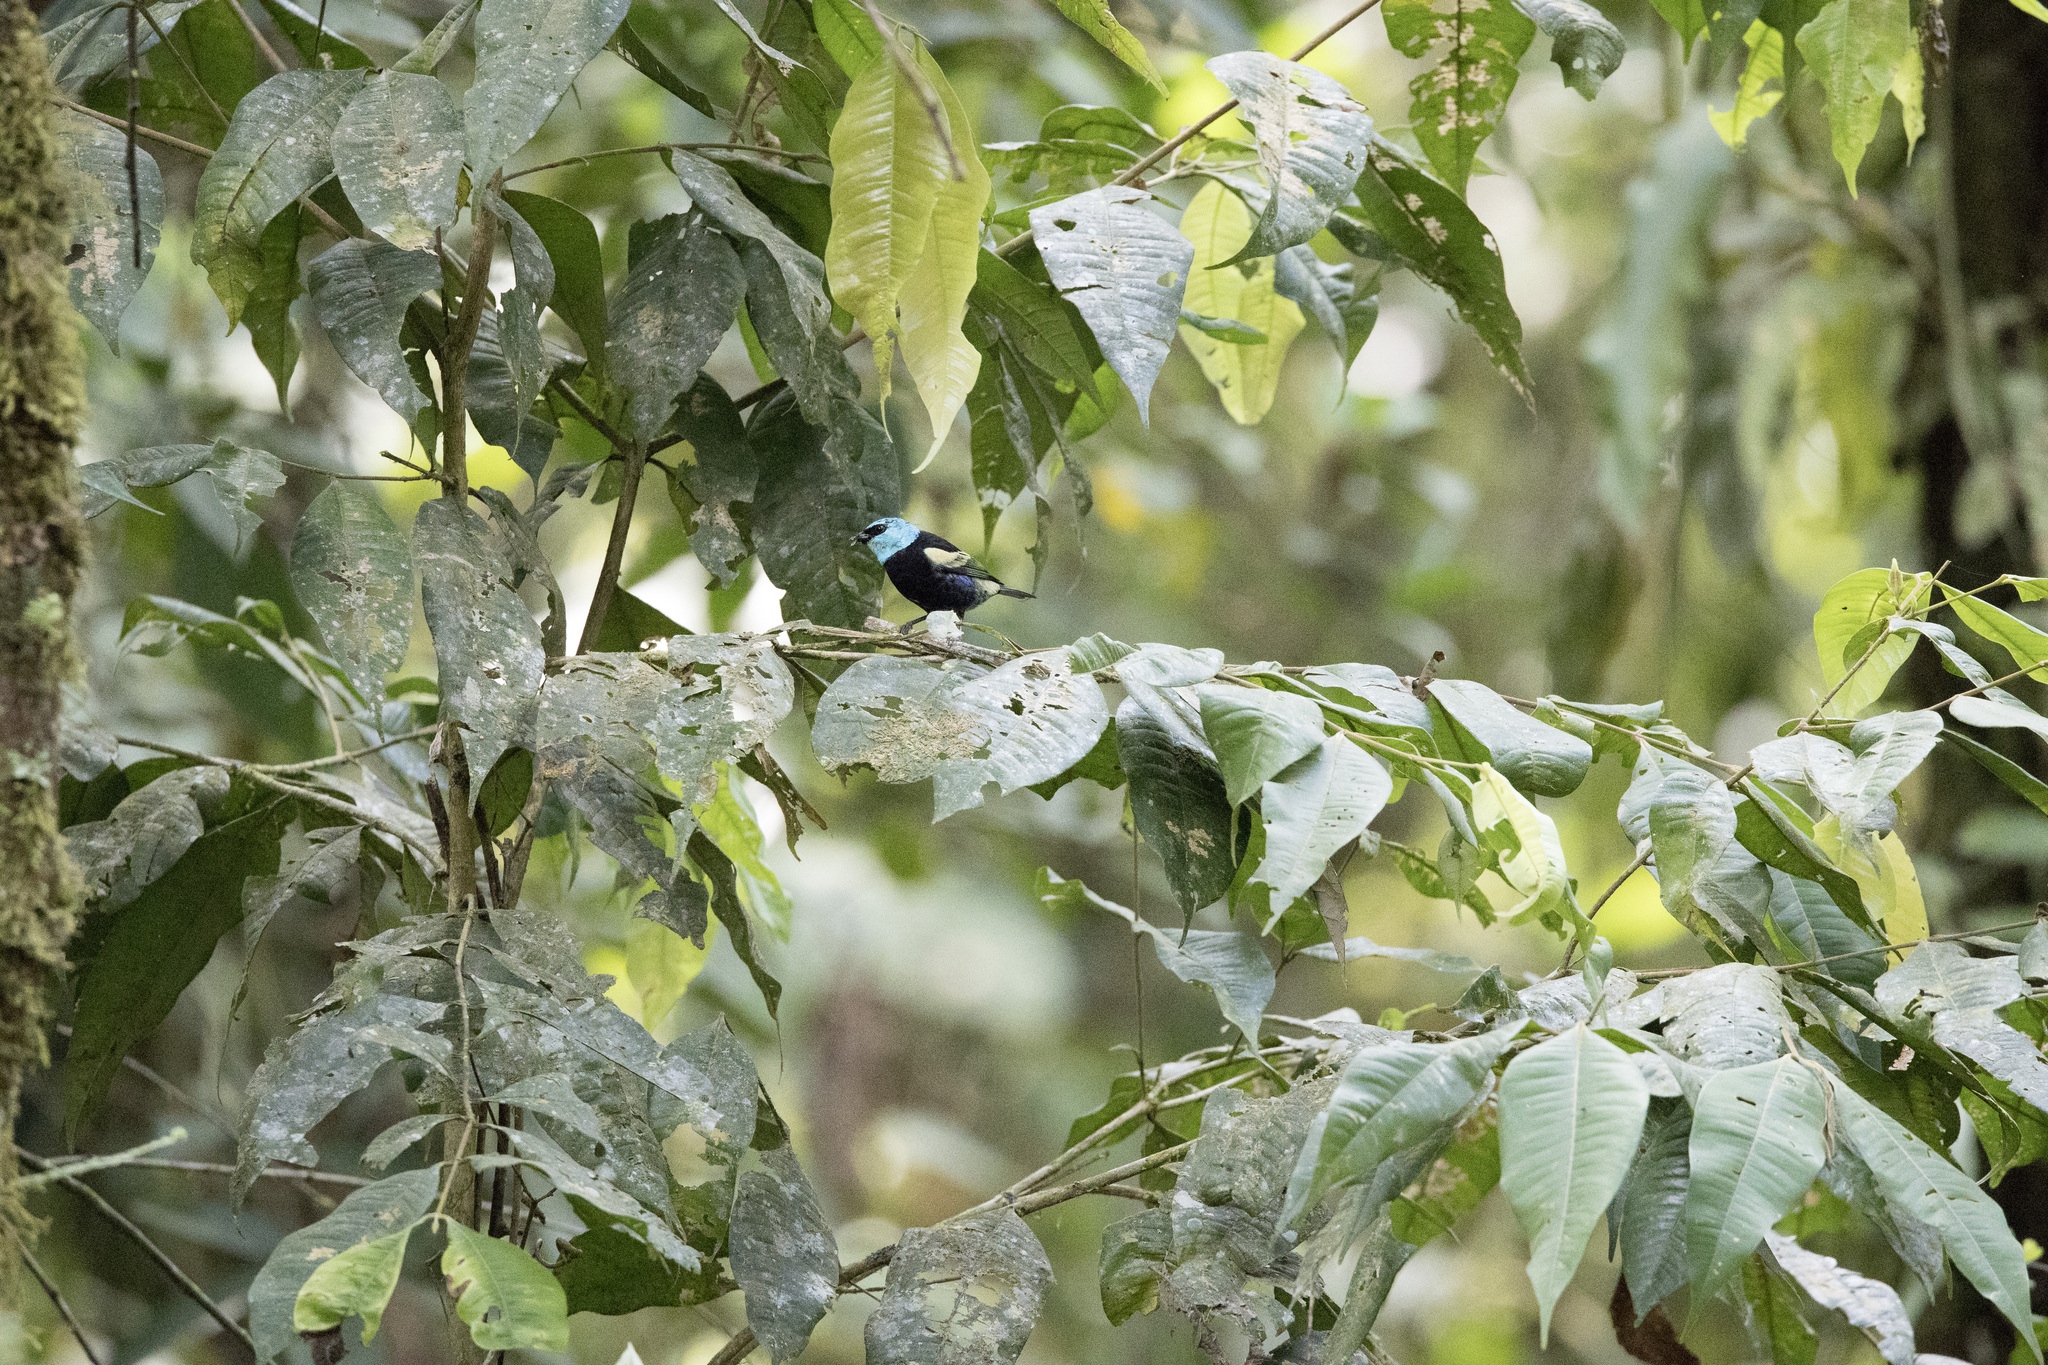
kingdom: Animalia
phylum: Chordata
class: Aves
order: Passeriformes
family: Thraupidae
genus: Stilpnia
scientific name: Stilpnia cyanicollis
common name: Blue-necked tanager
